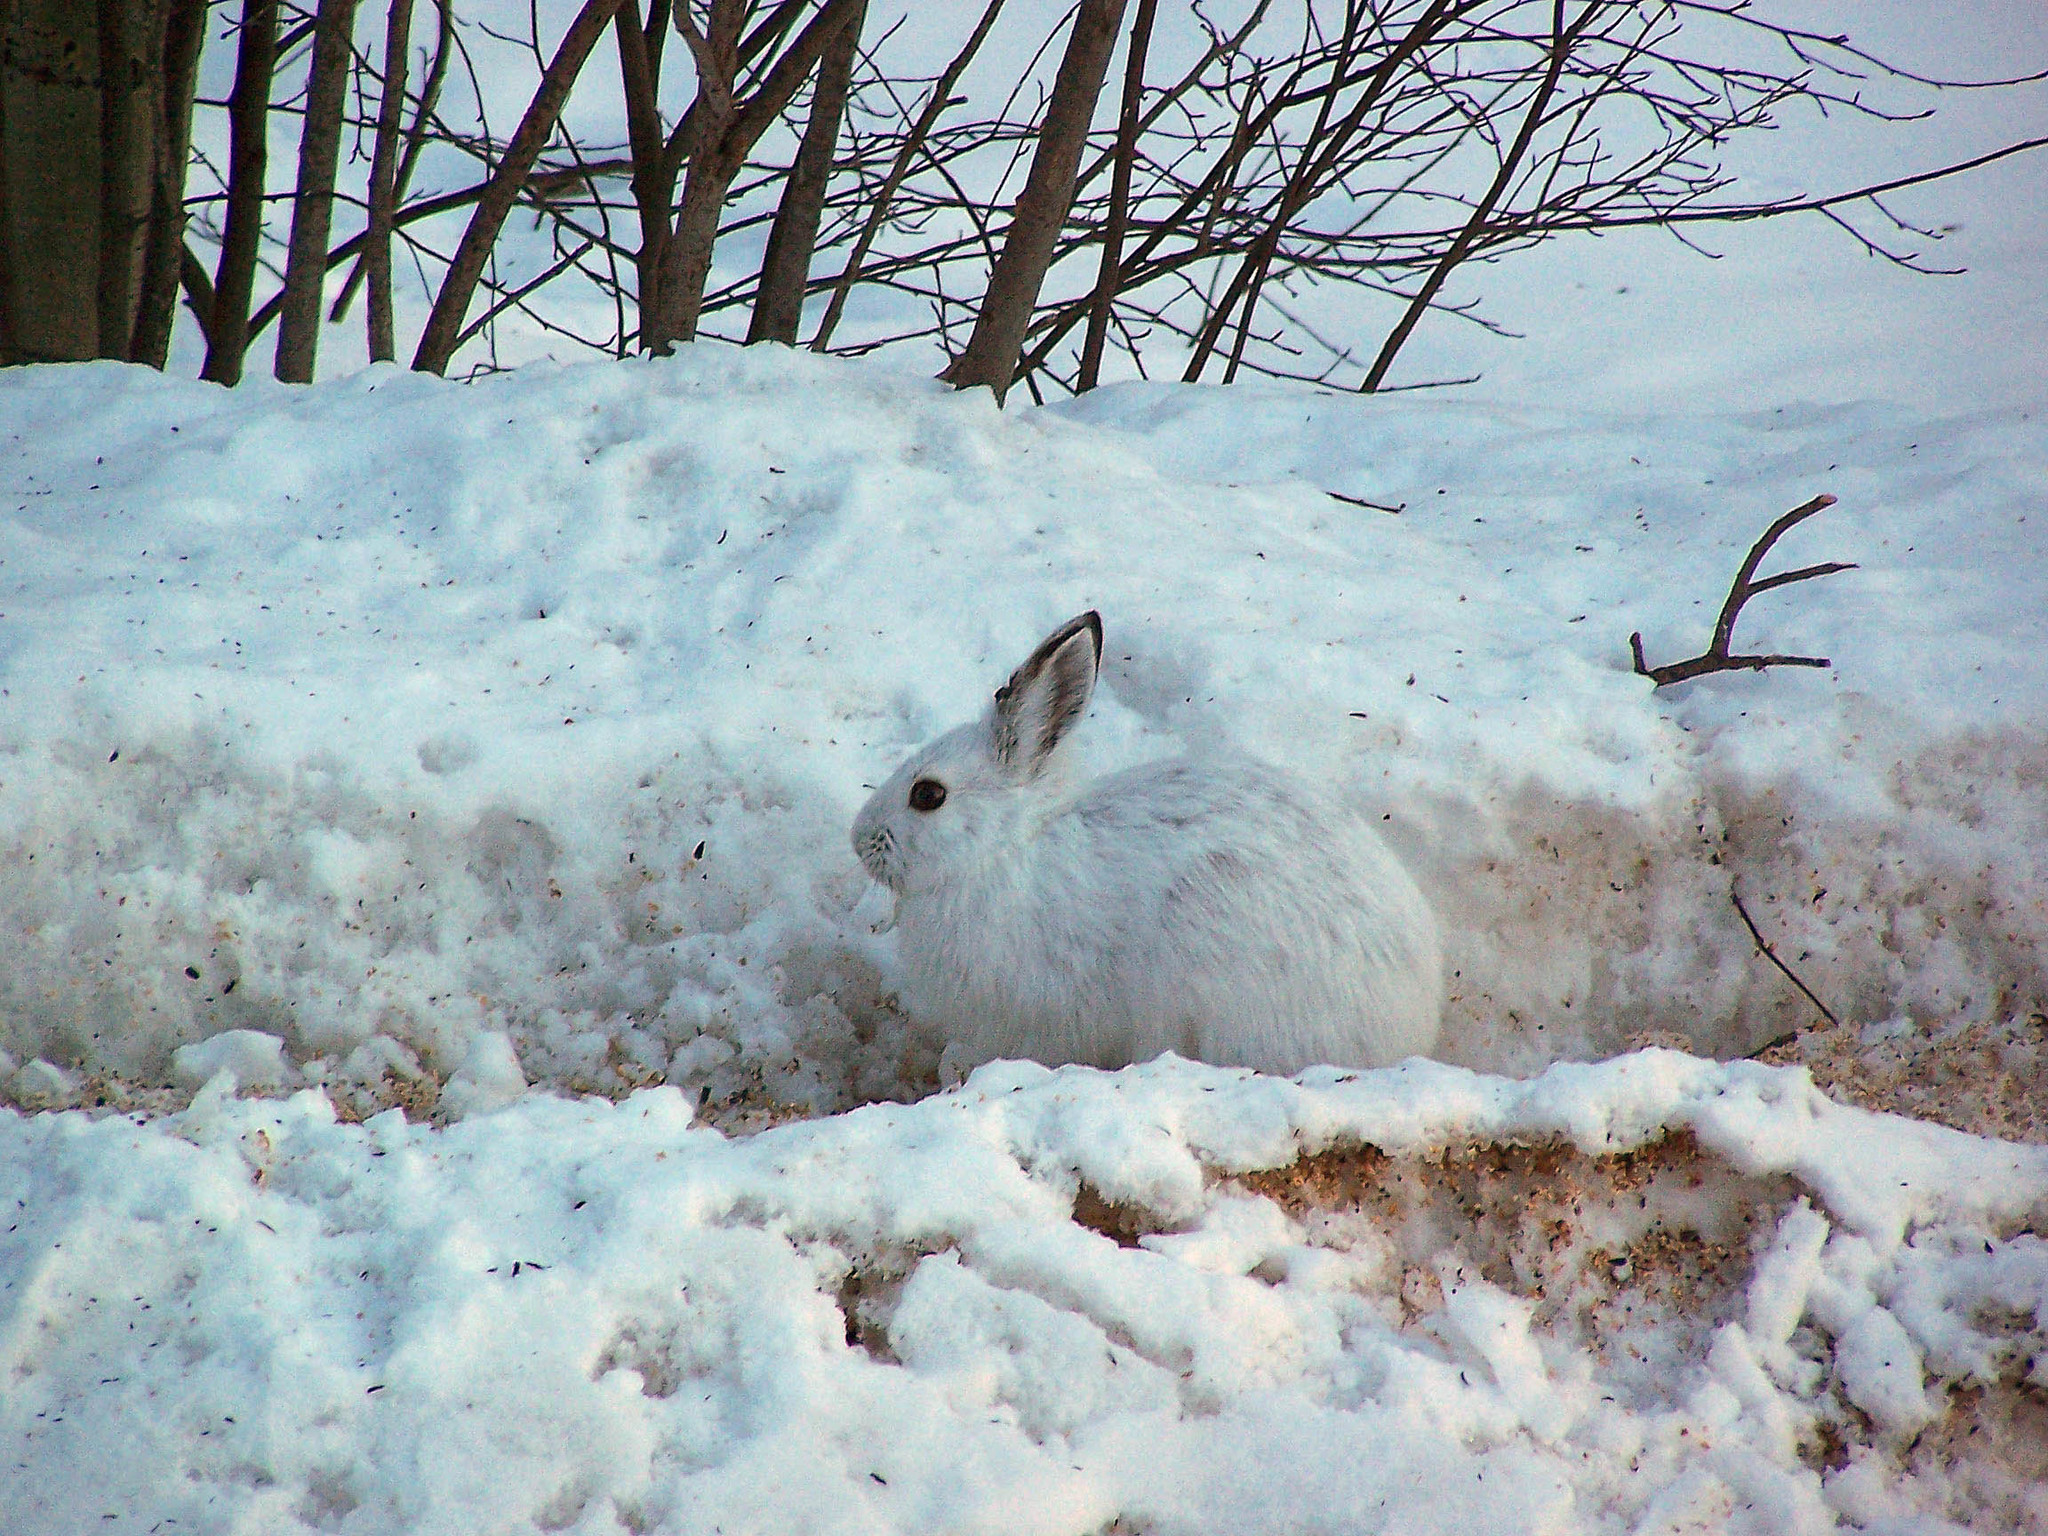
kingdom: Animalia
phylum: Chordata
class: Mammalia
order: Lagomorpha
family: Leporidae
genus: Lepus
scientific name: Lepus americanus
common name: Snowshoe hare
